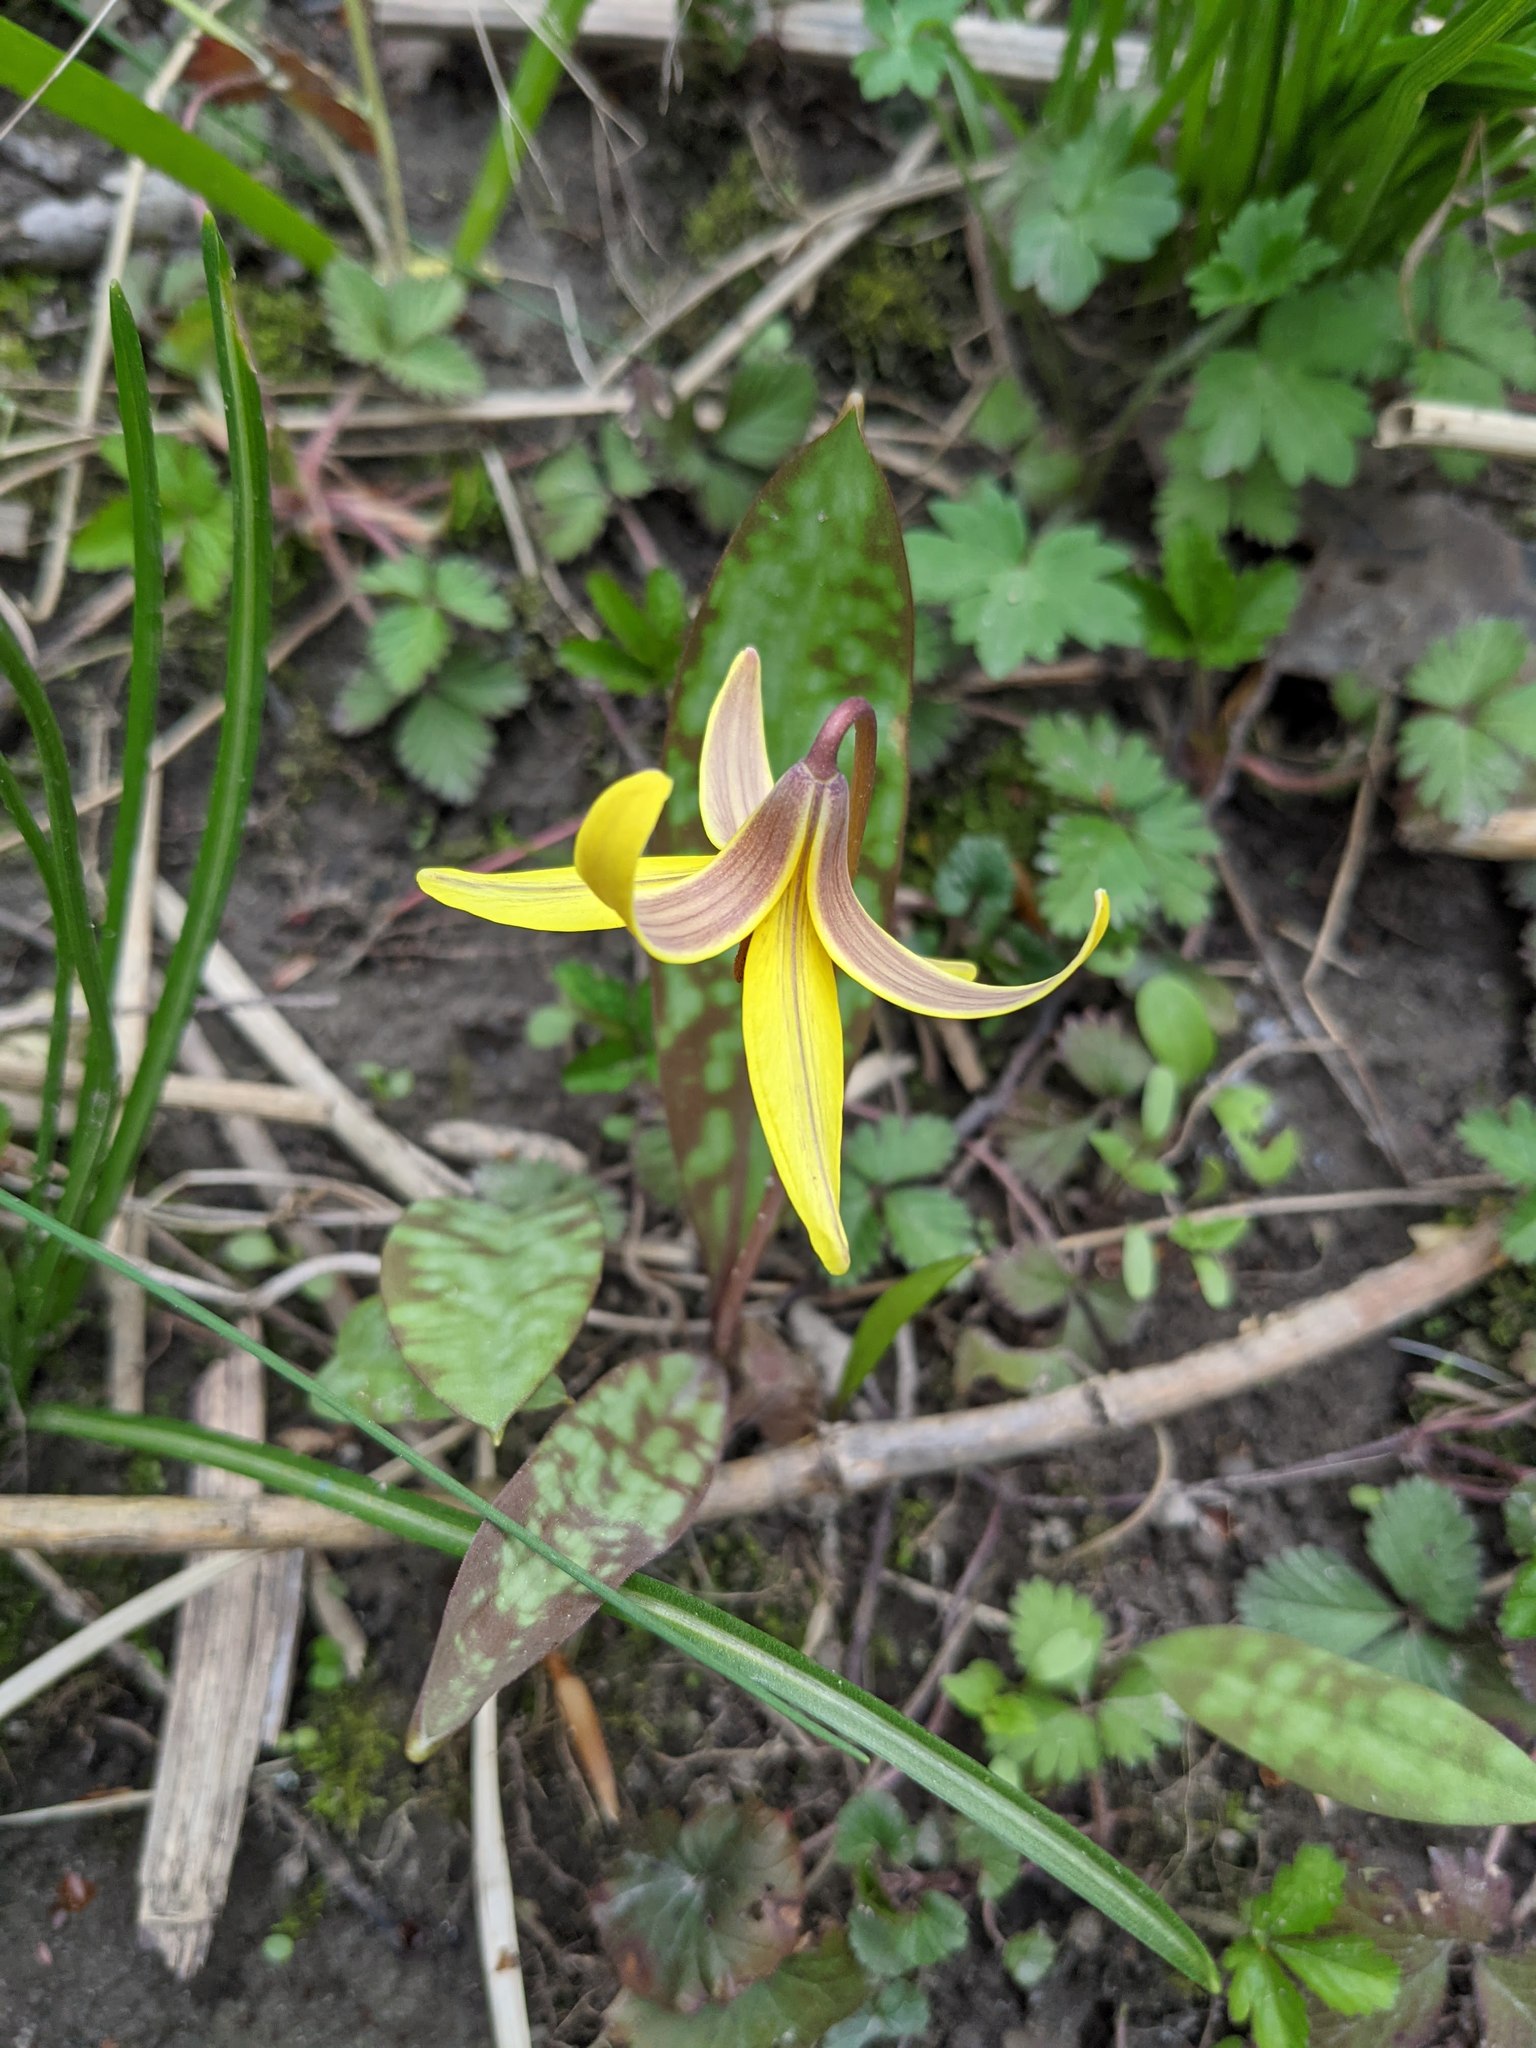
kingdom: Plantae
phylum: Tracheophyta
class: Liliopsida
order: Liliales
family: Liliaceae
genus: Erythronium
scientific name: Erythronium americanum
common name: Yellow adder's-tongue
